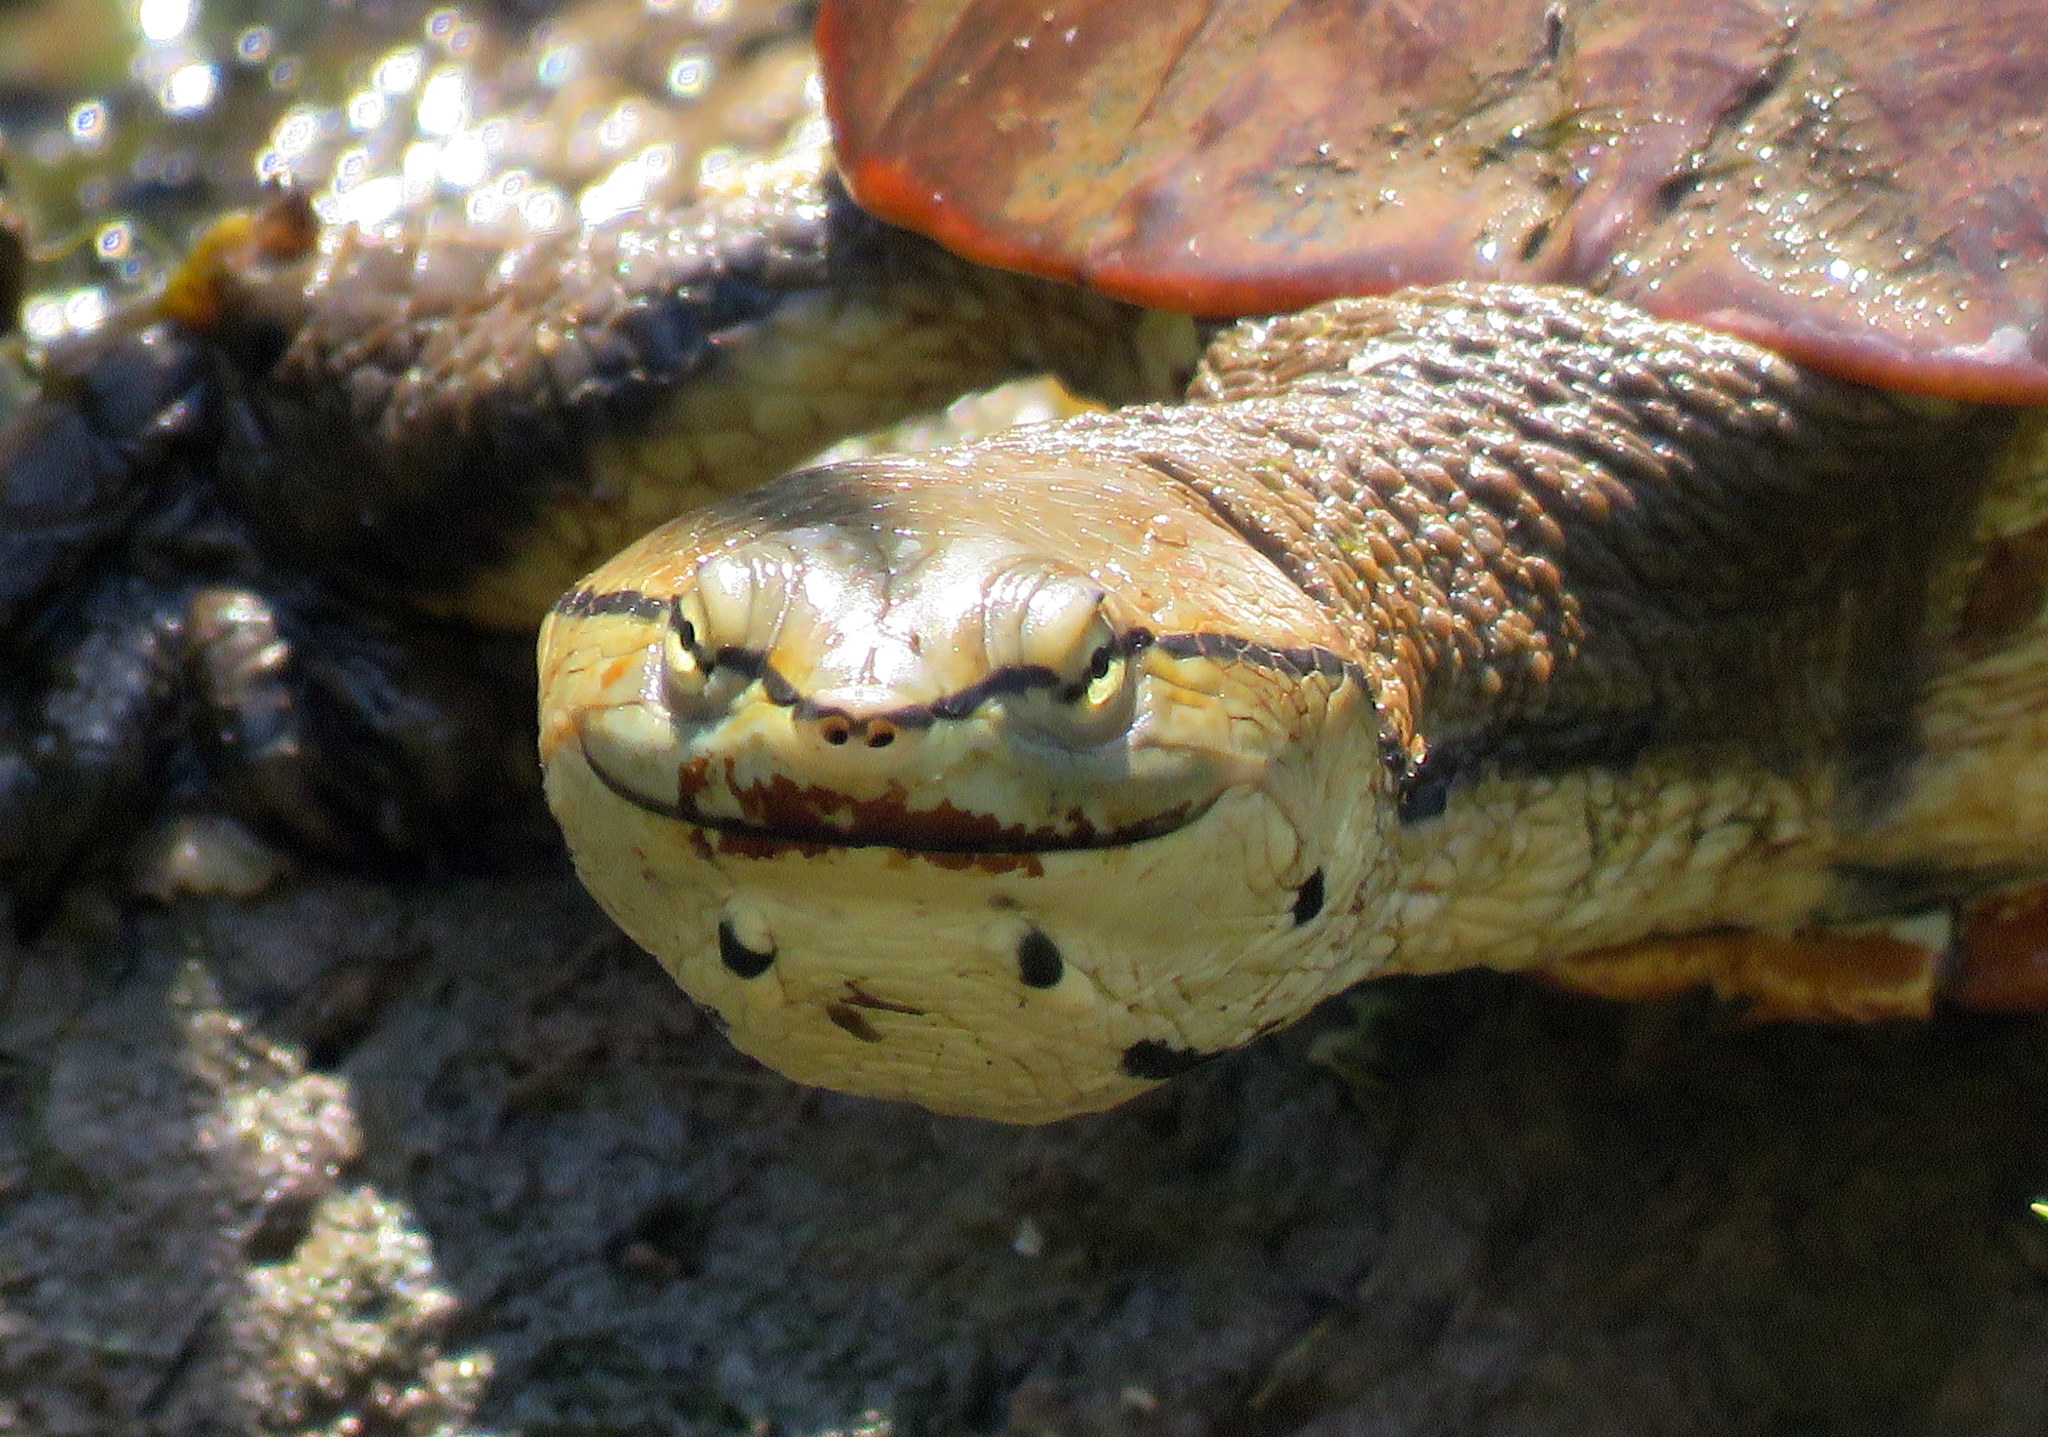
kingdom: Animalia
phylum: Chordata
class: Testudines
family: Chelidae
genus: Phrynops
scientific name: Phrynops hilarii
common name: Side-necked turtle of saint hillaire
